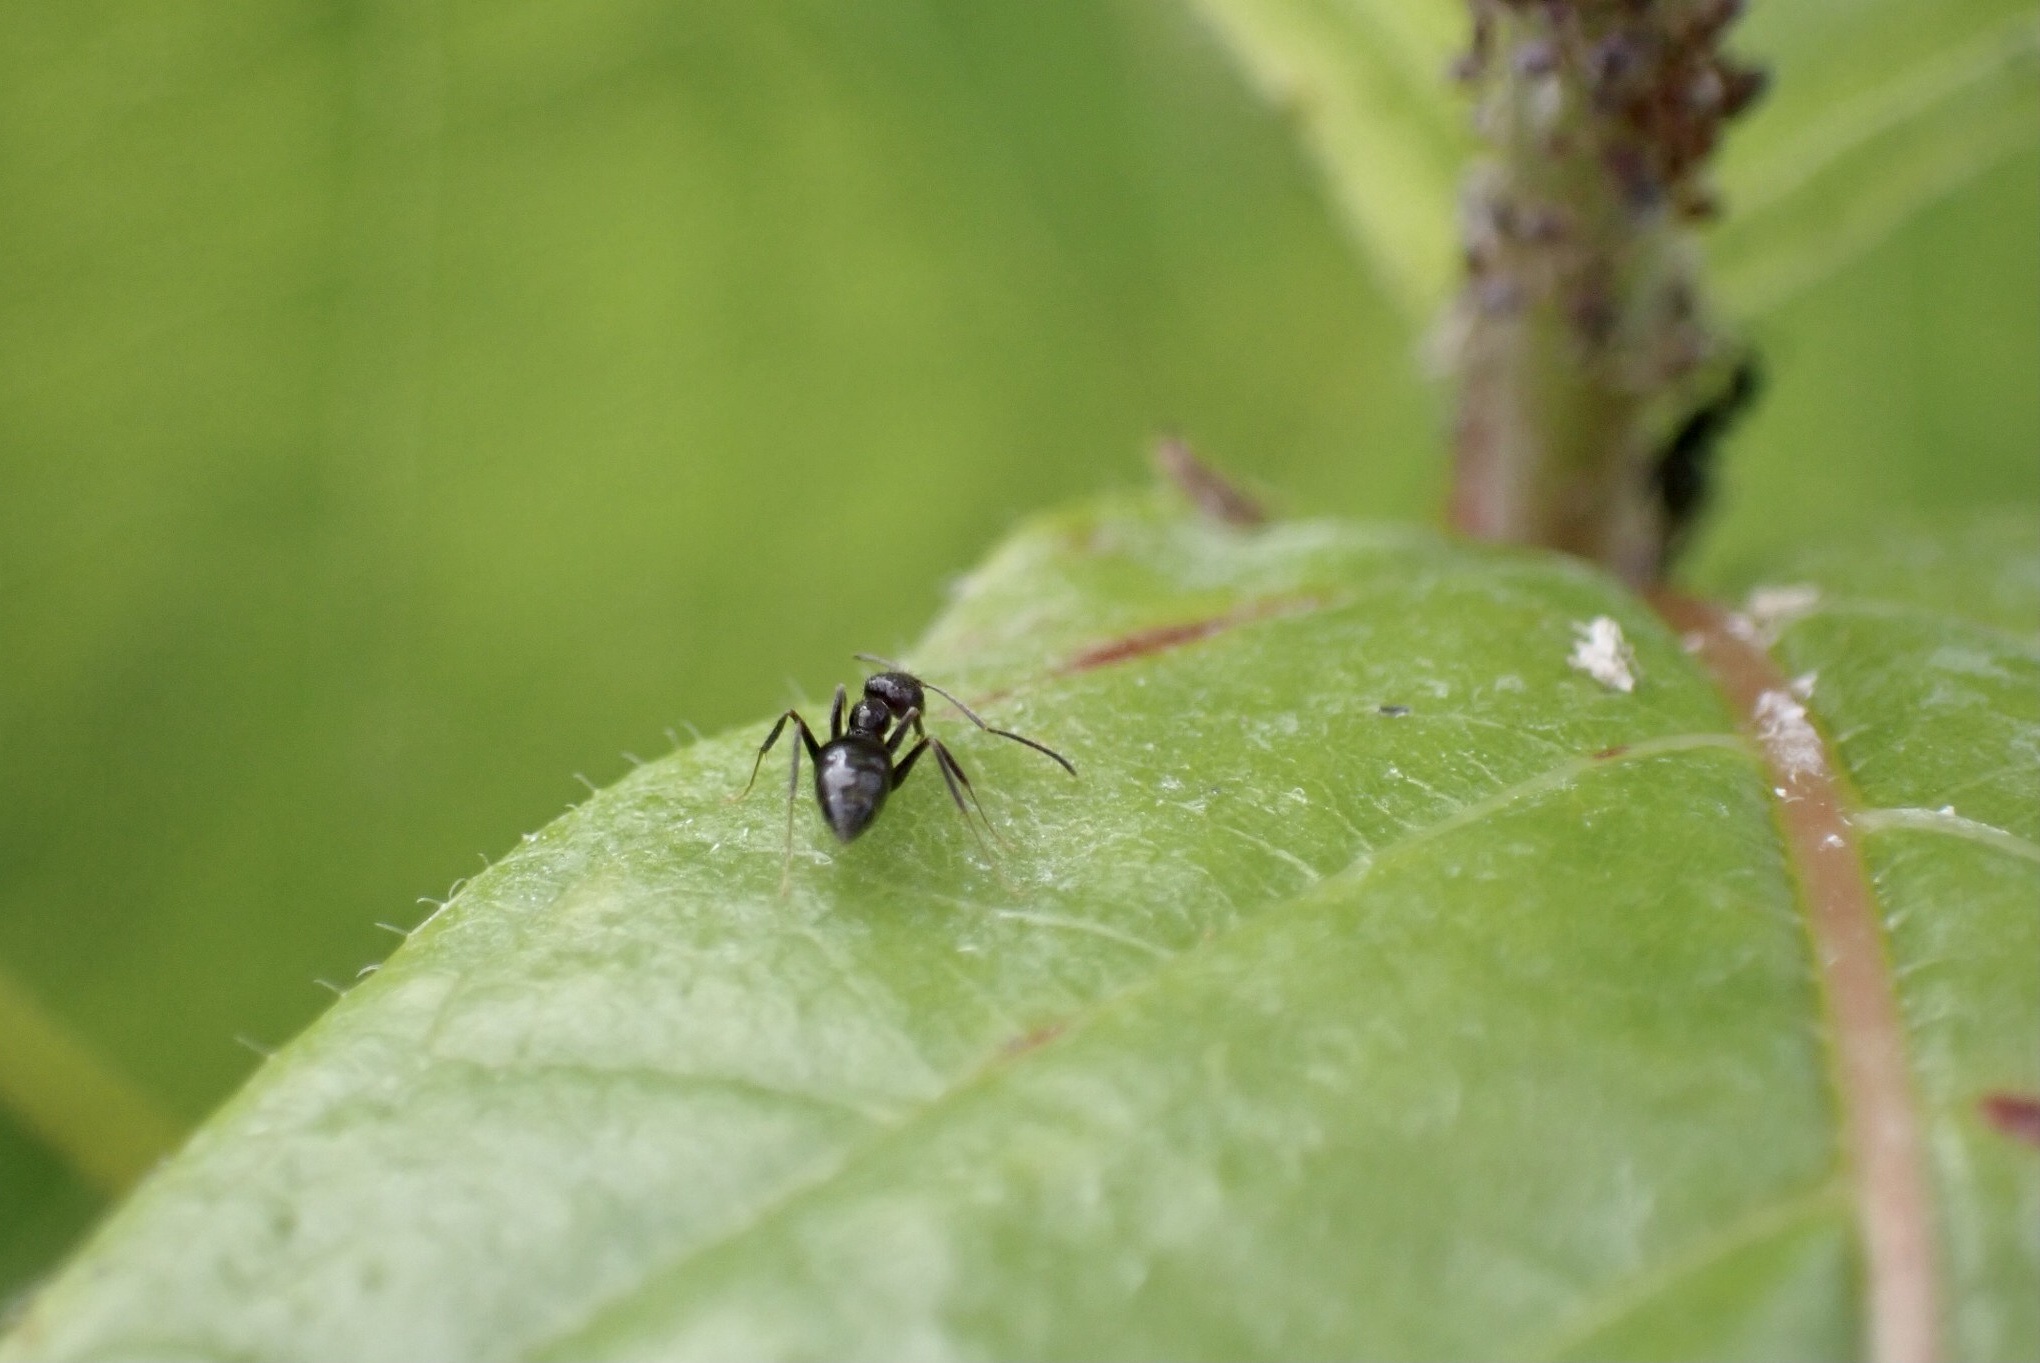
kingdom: Animalia
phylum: Arthropoda
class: Insecta
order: Hymenoptera
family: Formicidae
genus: Paratrechina
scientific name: Paratrechina bourbonica
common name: Ant
